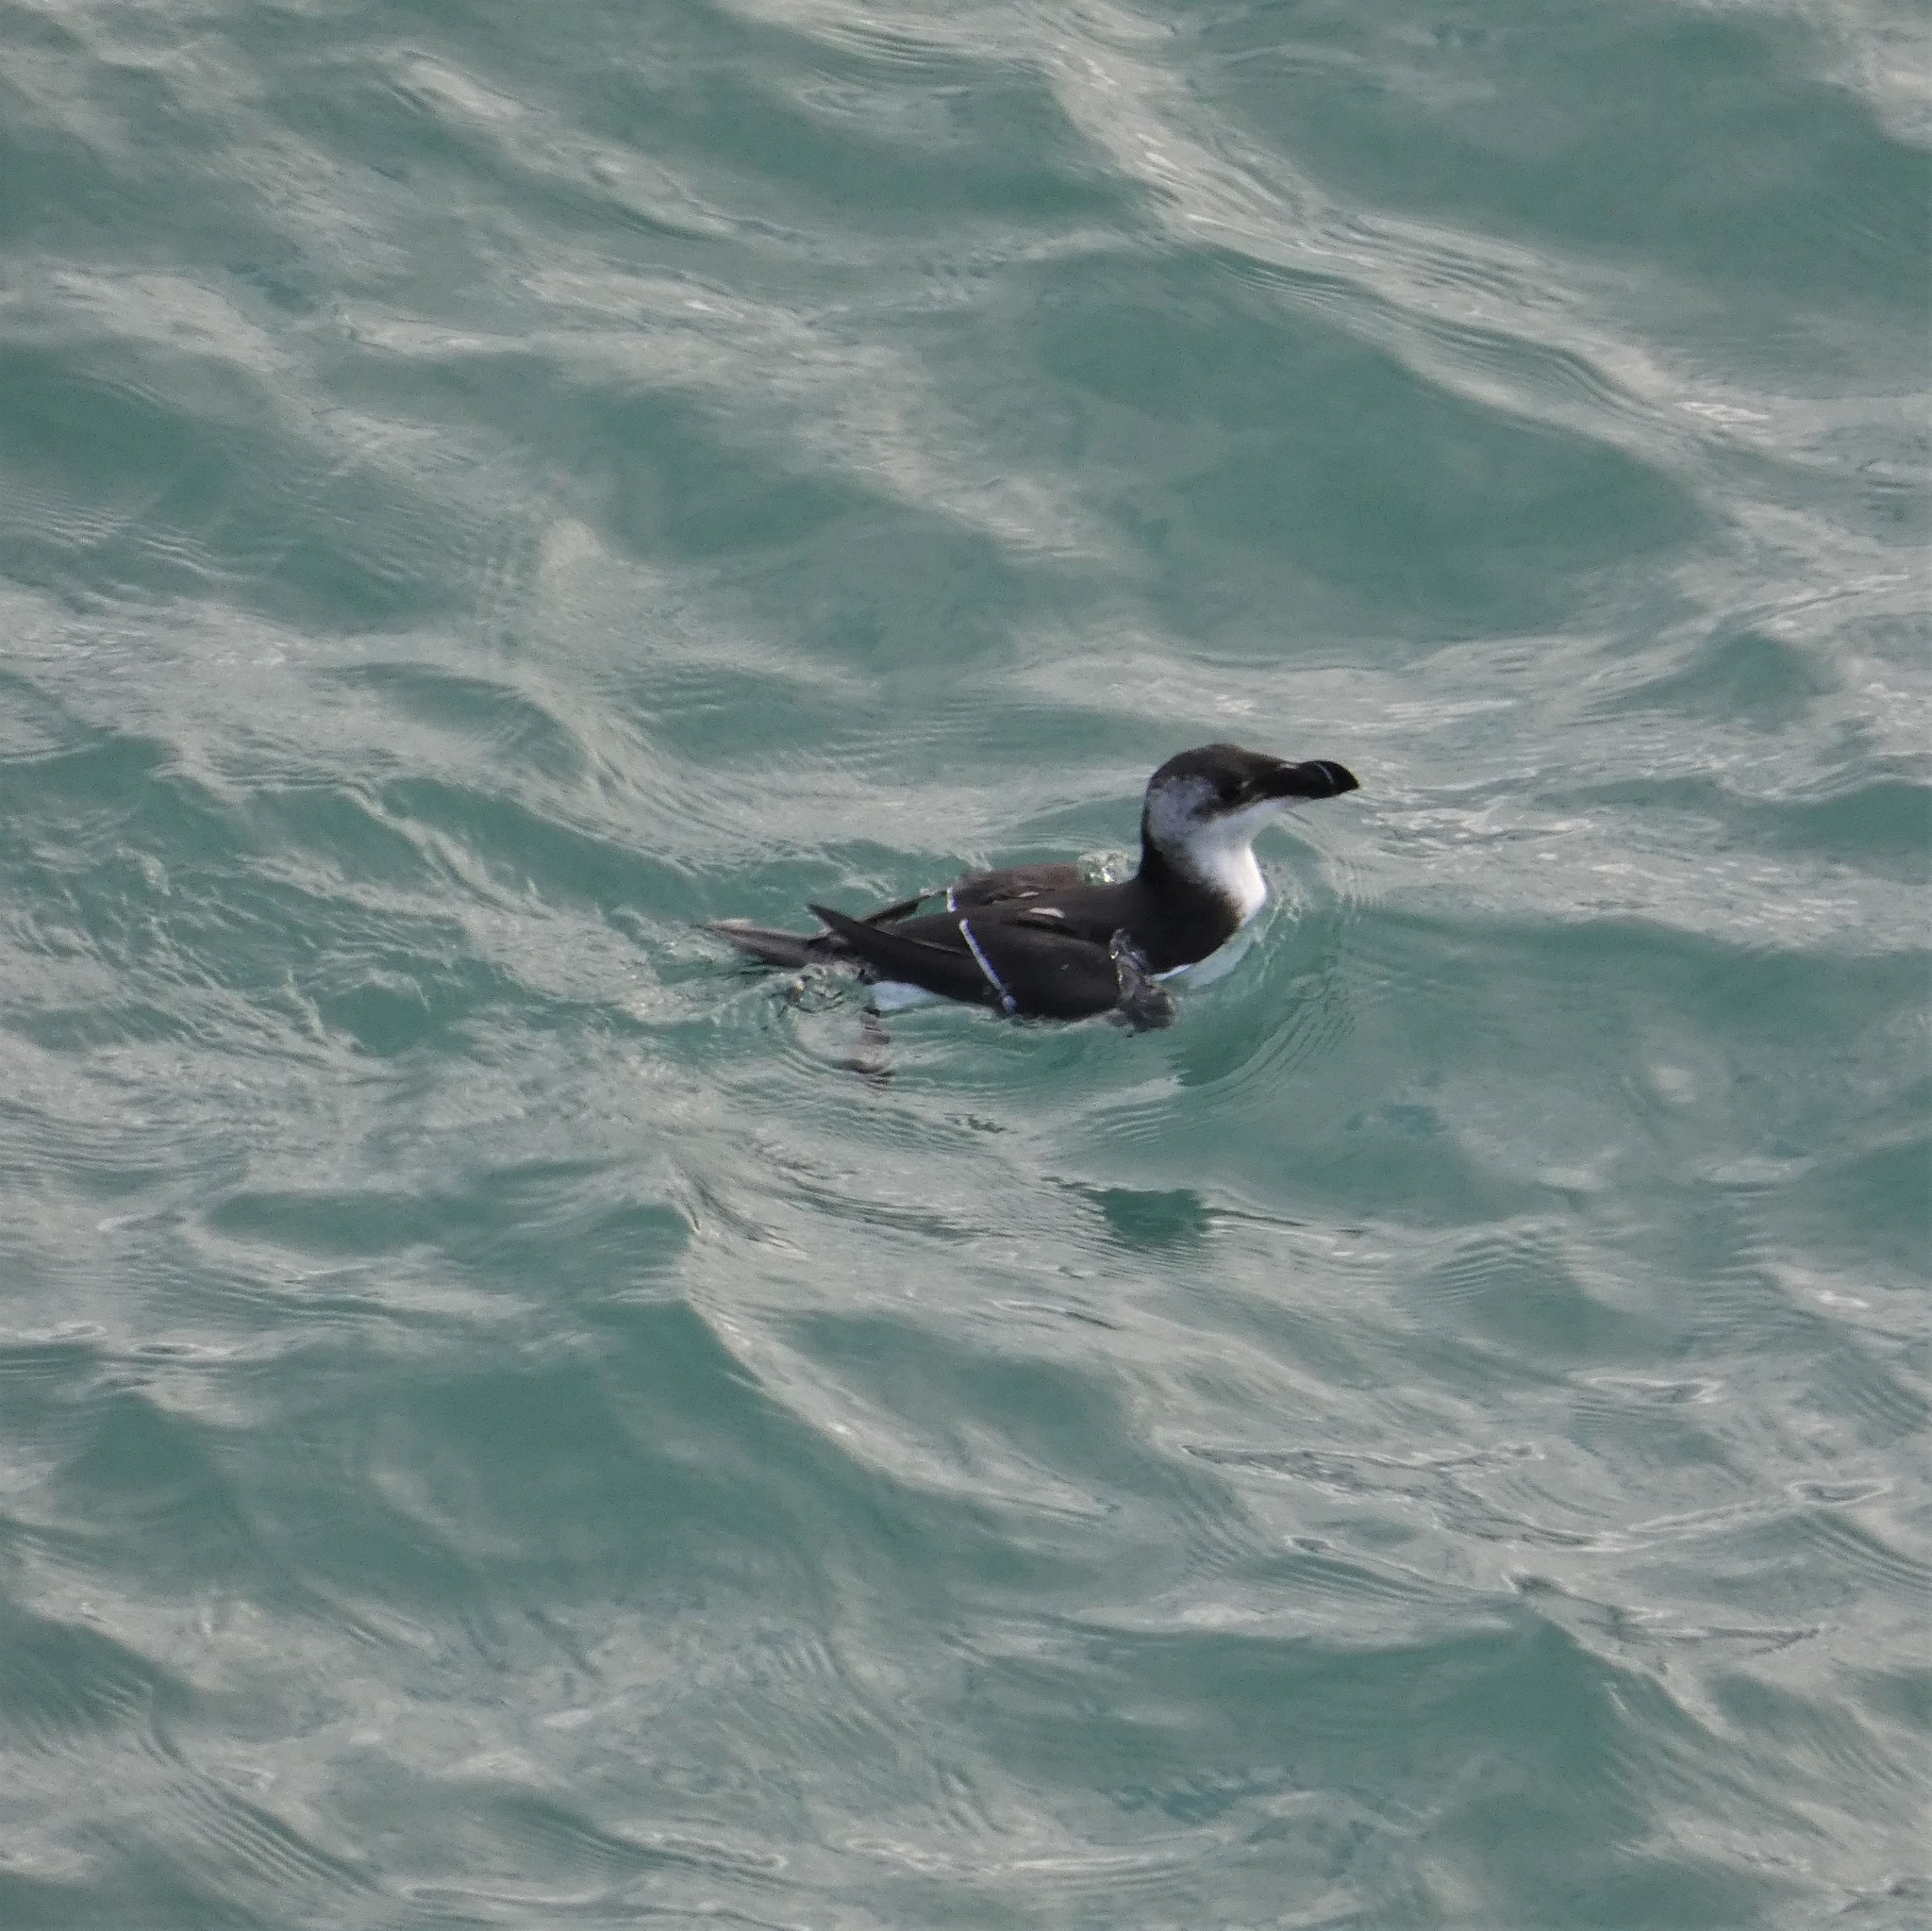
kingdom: Animalia
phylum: Chordata
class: Aves
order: Charadriiformes
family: Alcidae
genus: Alca
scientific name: Alca torda
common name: Razorbill
